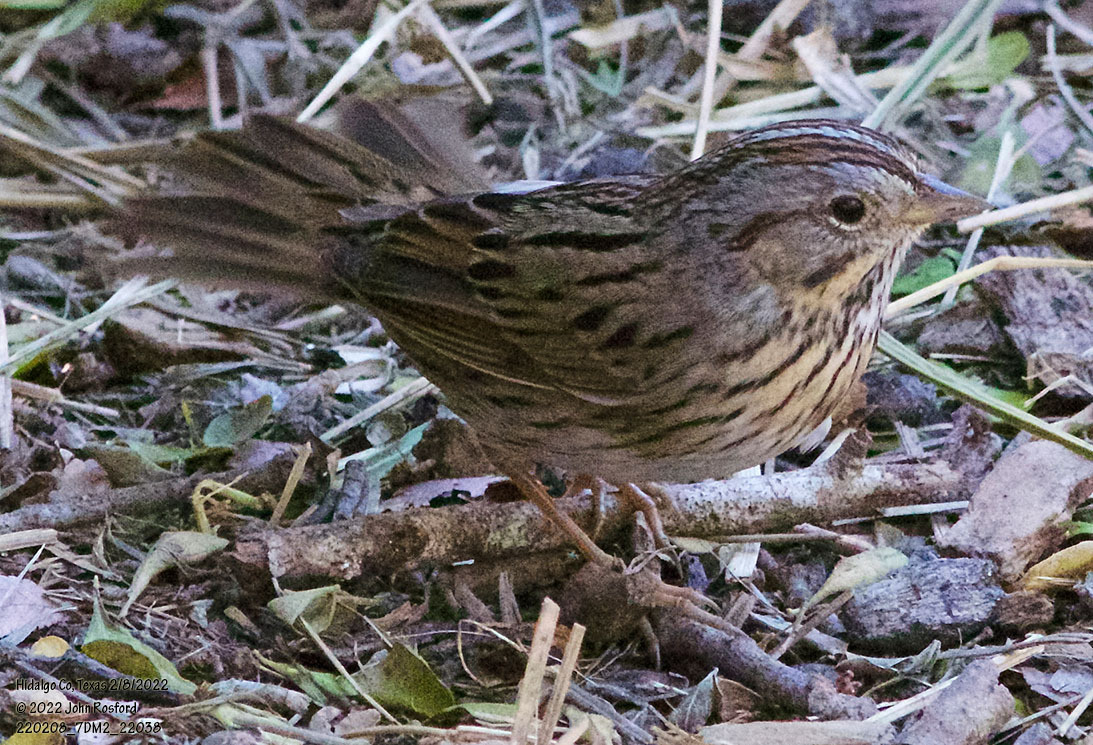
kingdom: Animalia
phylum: Chordata
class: Aves
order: Passeriformes
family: Passerellidae
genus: Melospiza
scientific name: Melospiza lincolnii
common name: Lincoln's sparrow
